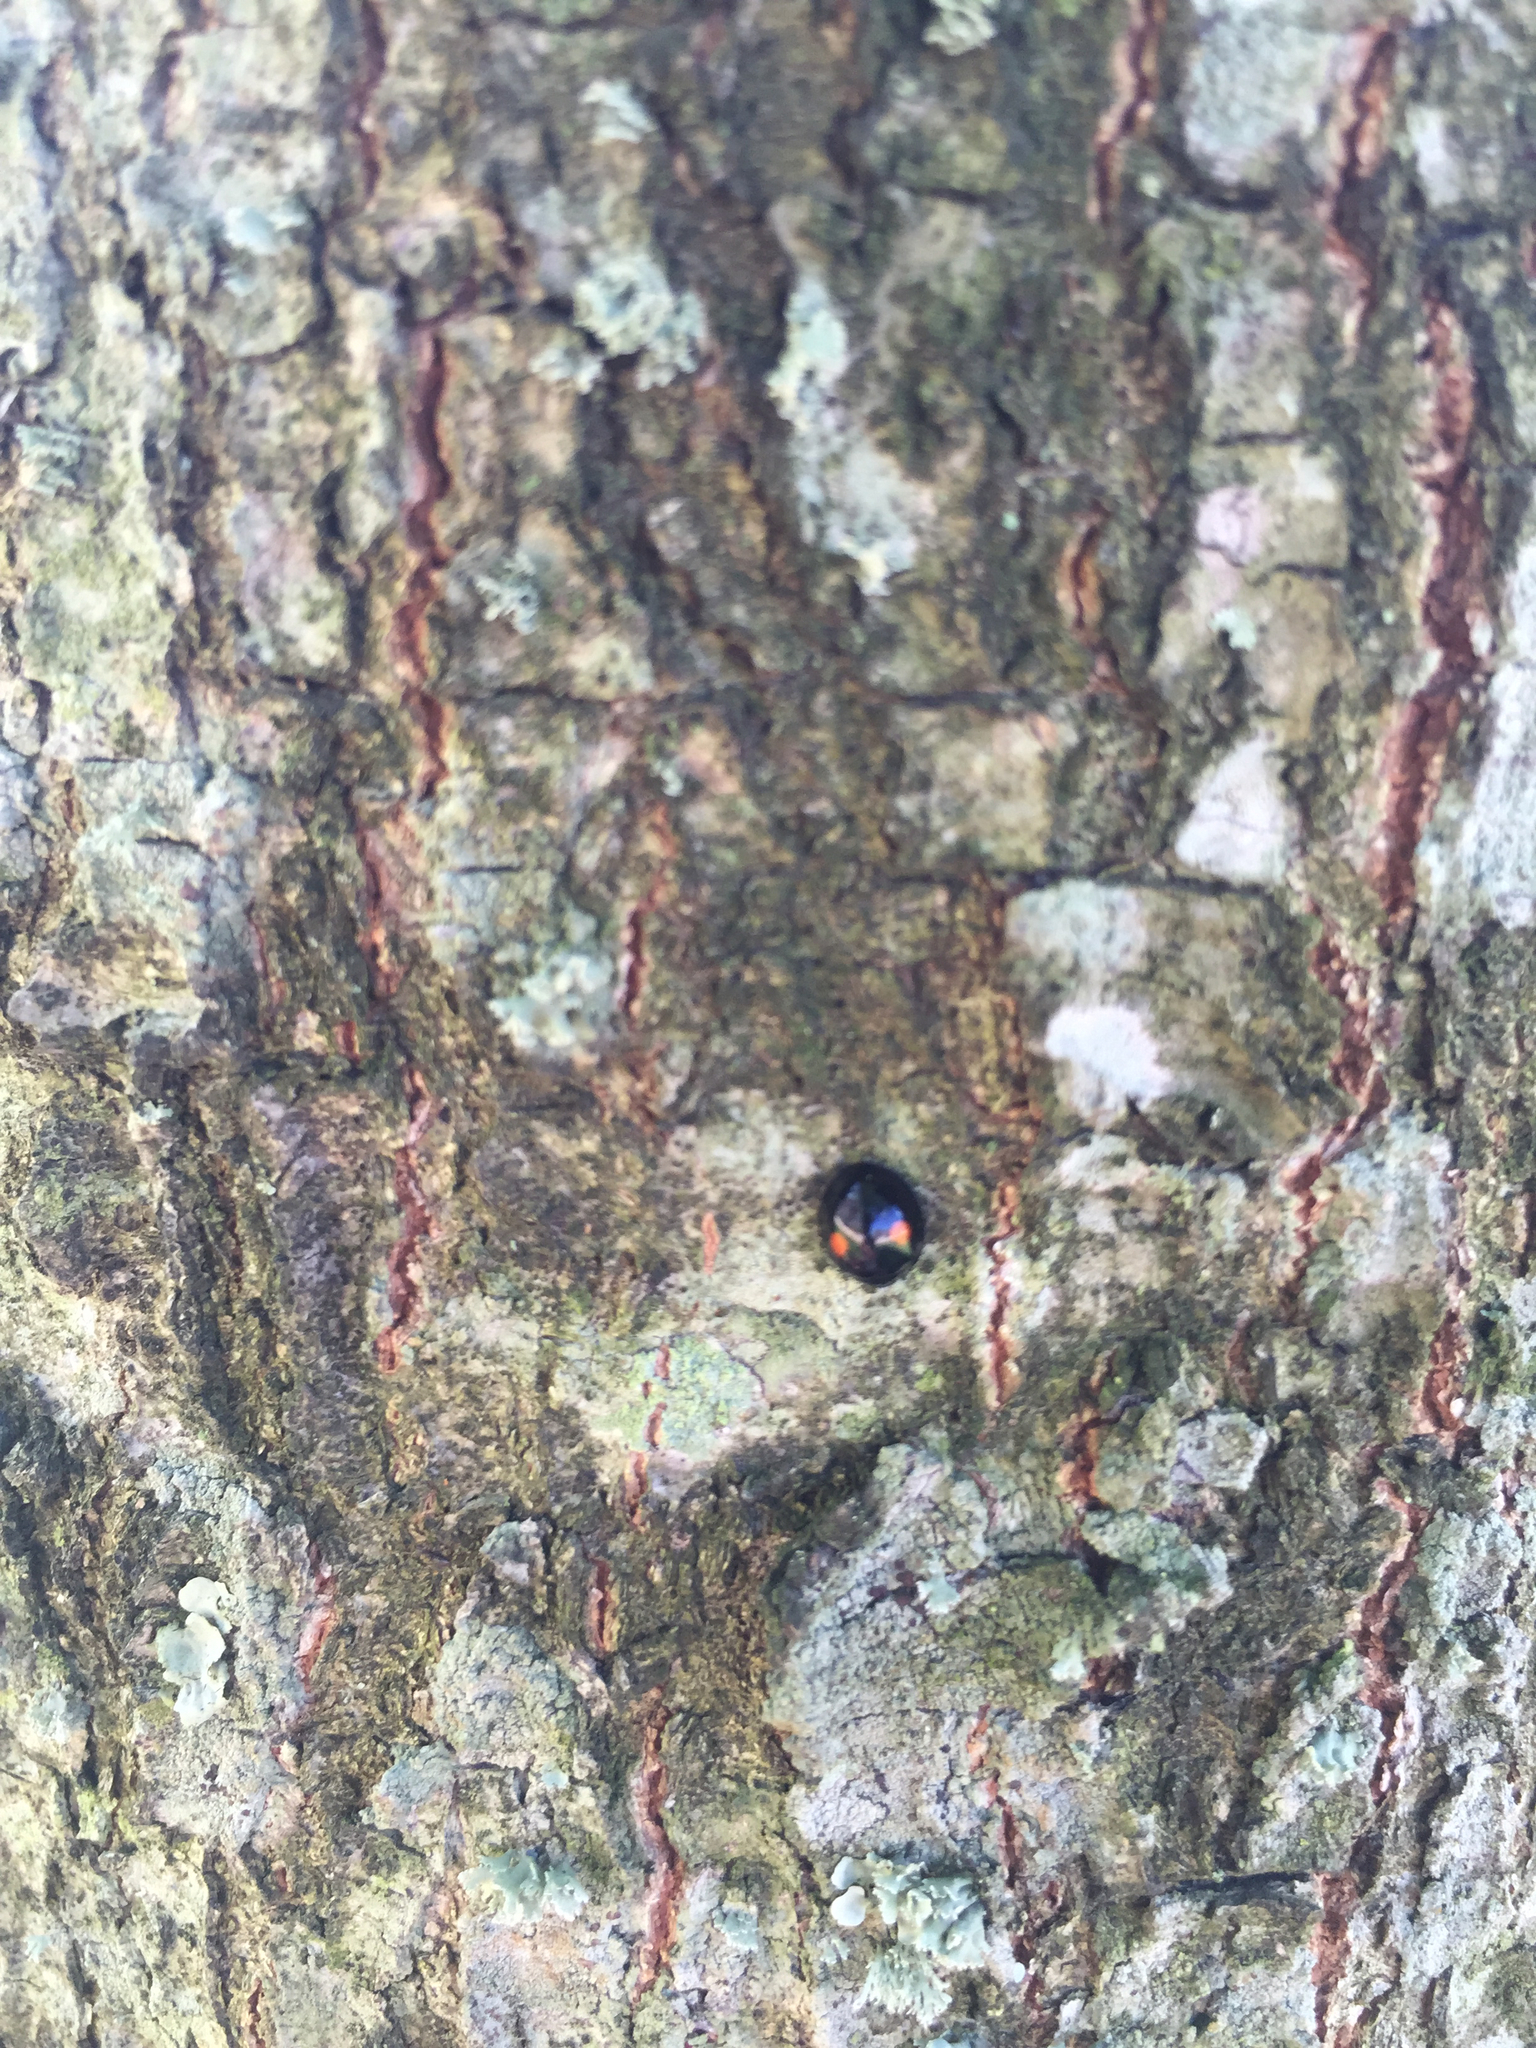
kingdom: Animalia
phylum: Arthropoda
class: Insecta
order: Coleoptera
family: Coccinellidae
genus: Chilocorus
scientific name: Chilocorus stigma
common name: Twicestabbed lady beetle
